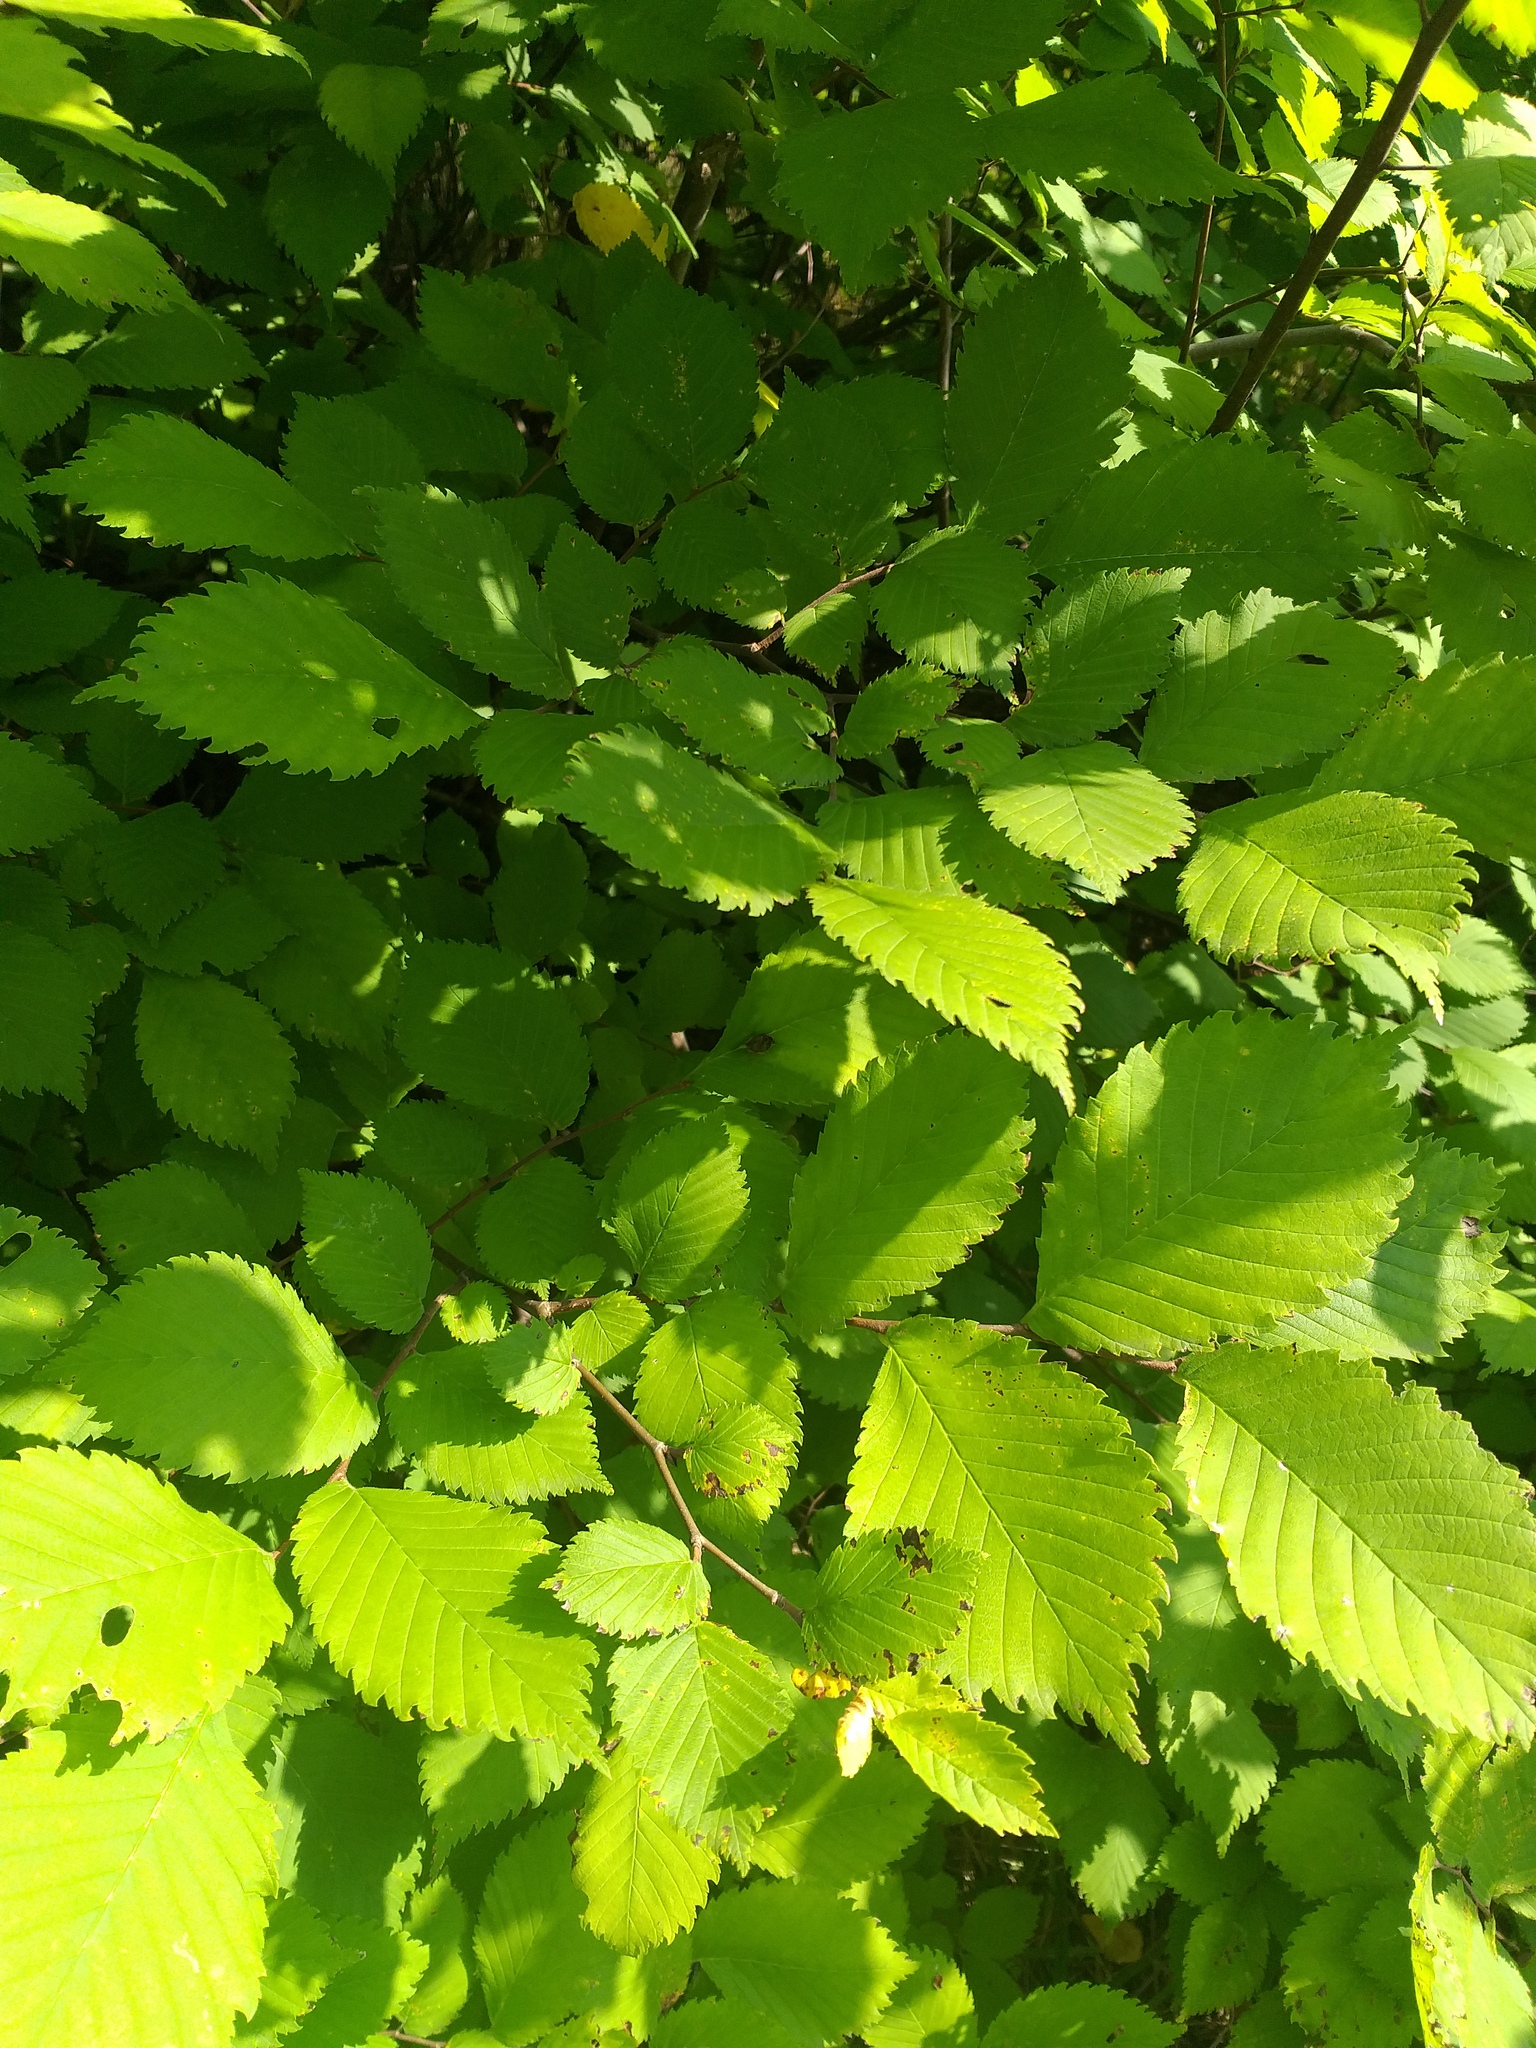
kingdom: Plantae
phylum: Tracheophyta
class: Magnoliopsida
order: Rosales
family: Ulmaceae
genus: Ulmus
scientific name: Ulmus laevis
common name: European white-elm
